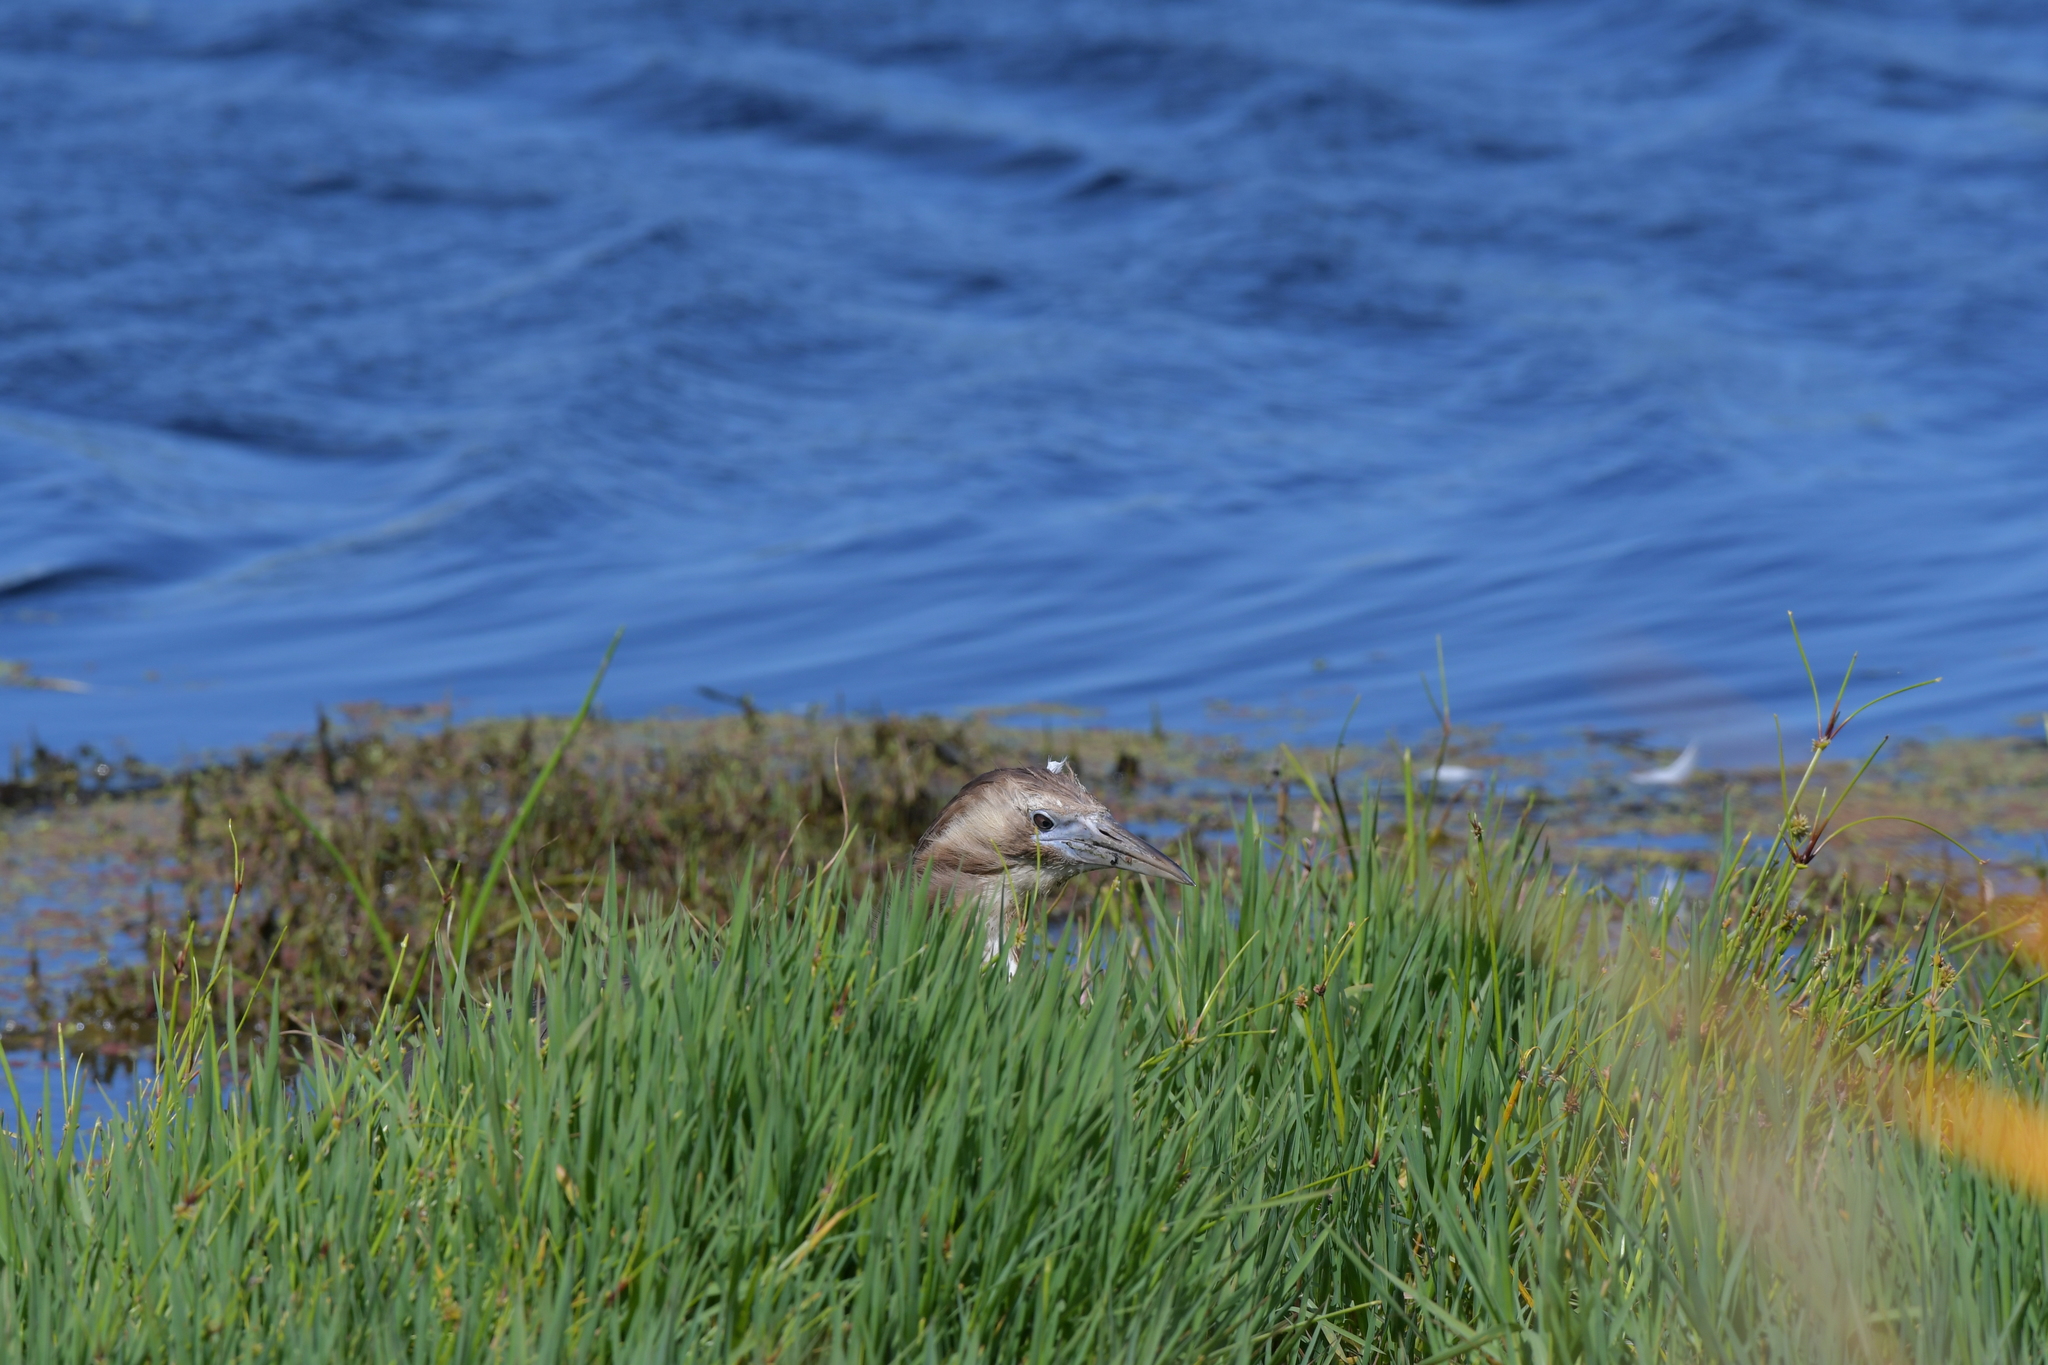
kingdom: Animalia
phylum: Chordata
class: Aves
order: Pelecaniformes
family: Ardeidae
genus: Botaurus
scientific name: Botaurus poiciloptilus
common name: Australasian bittern
